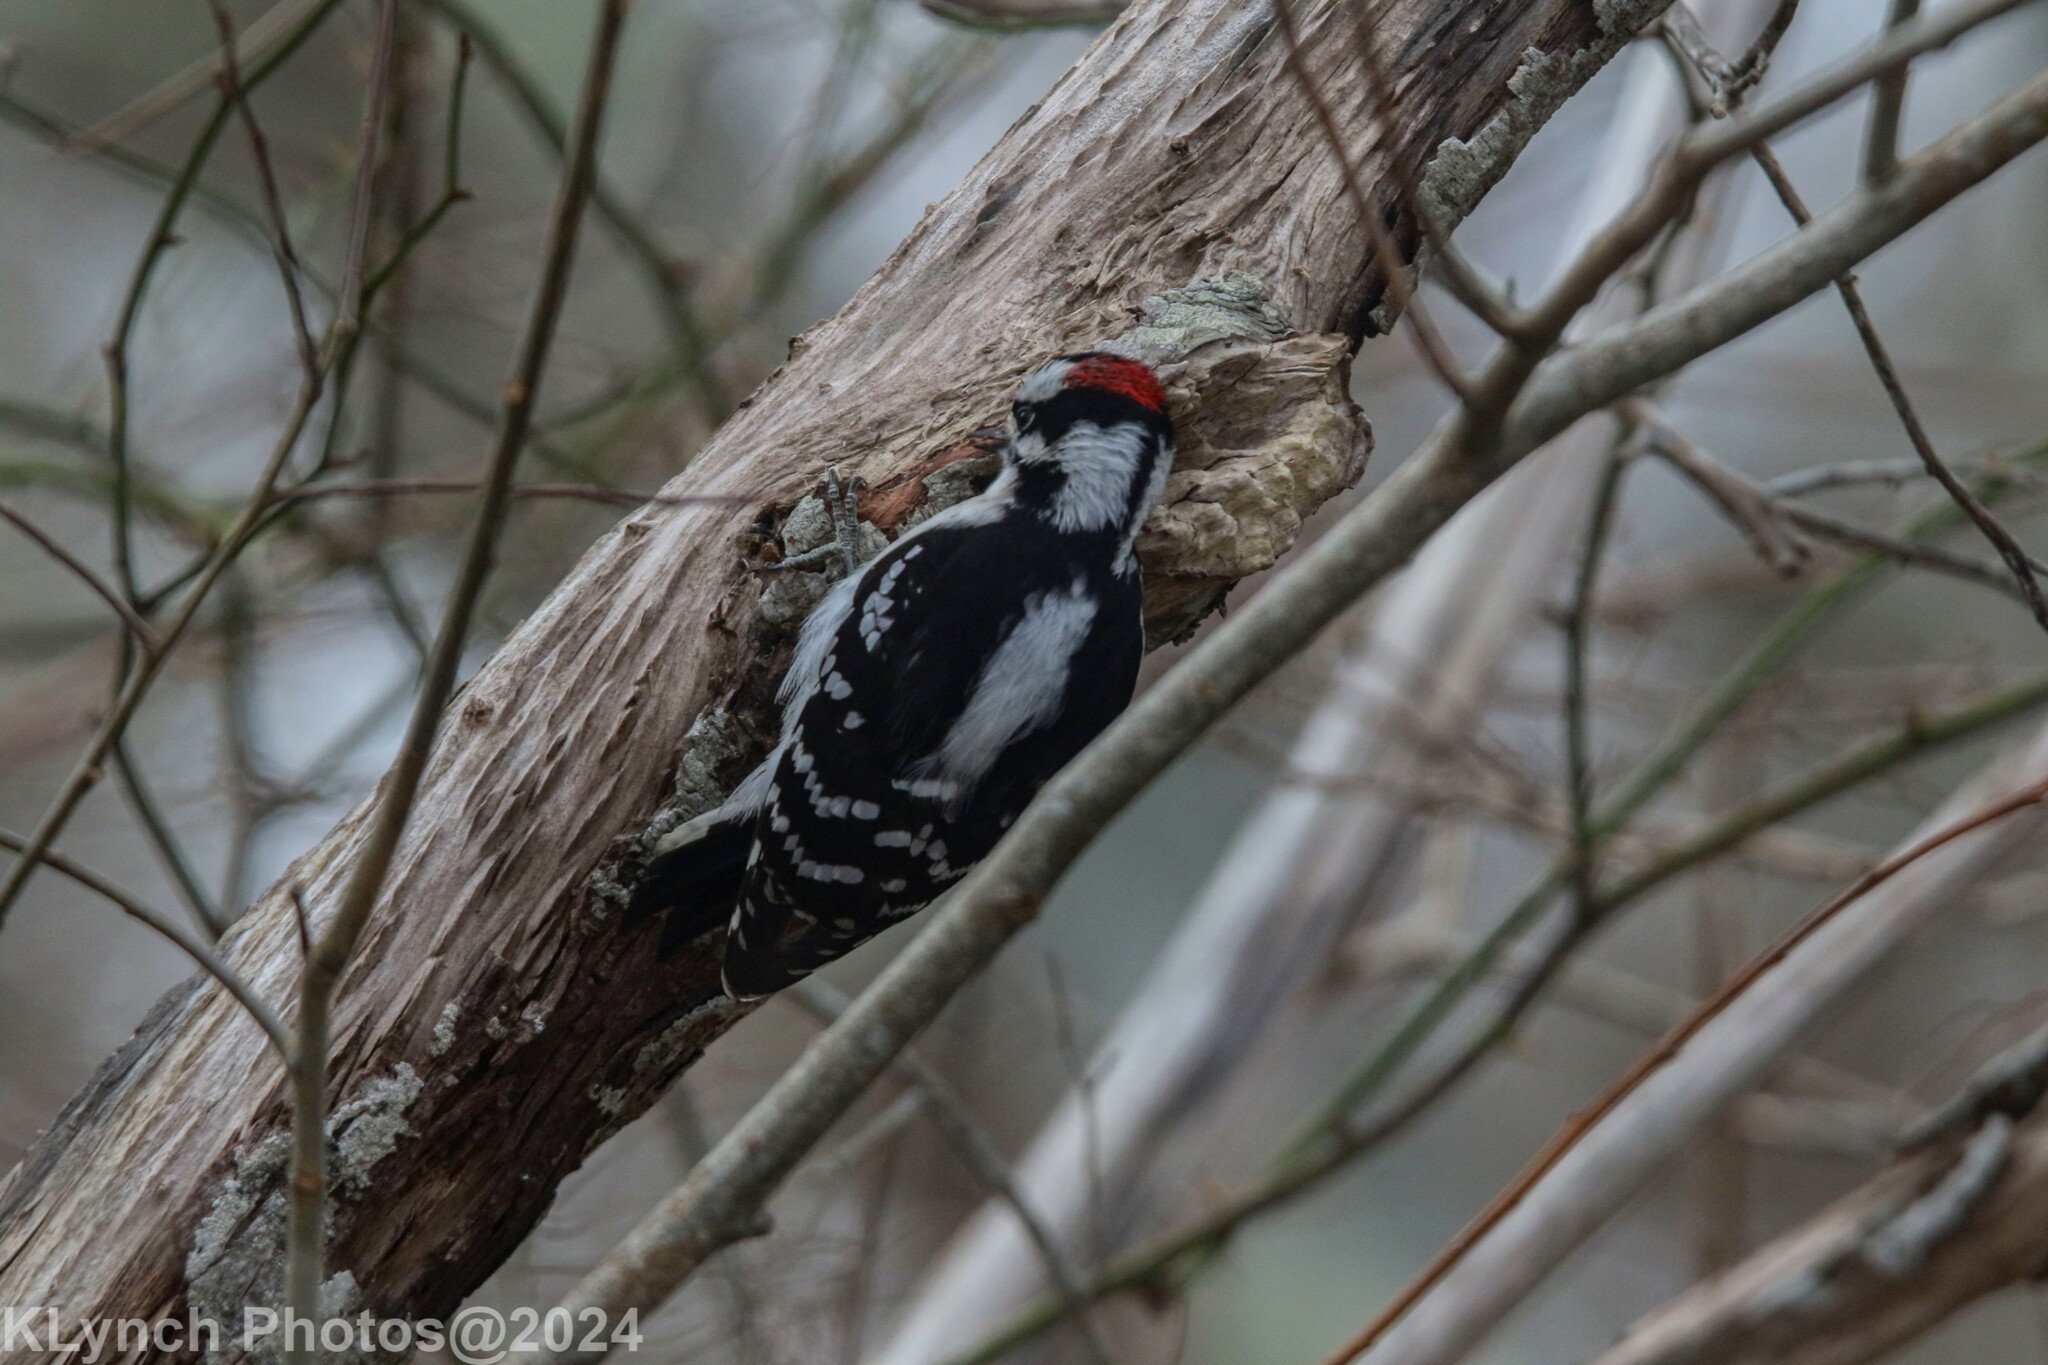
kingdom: Animalia
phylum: Chordata
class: Aves
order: Piciformes
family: Picidae
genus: Dryobates
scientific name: Dryobates pubescens
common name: Downy woodpecker
